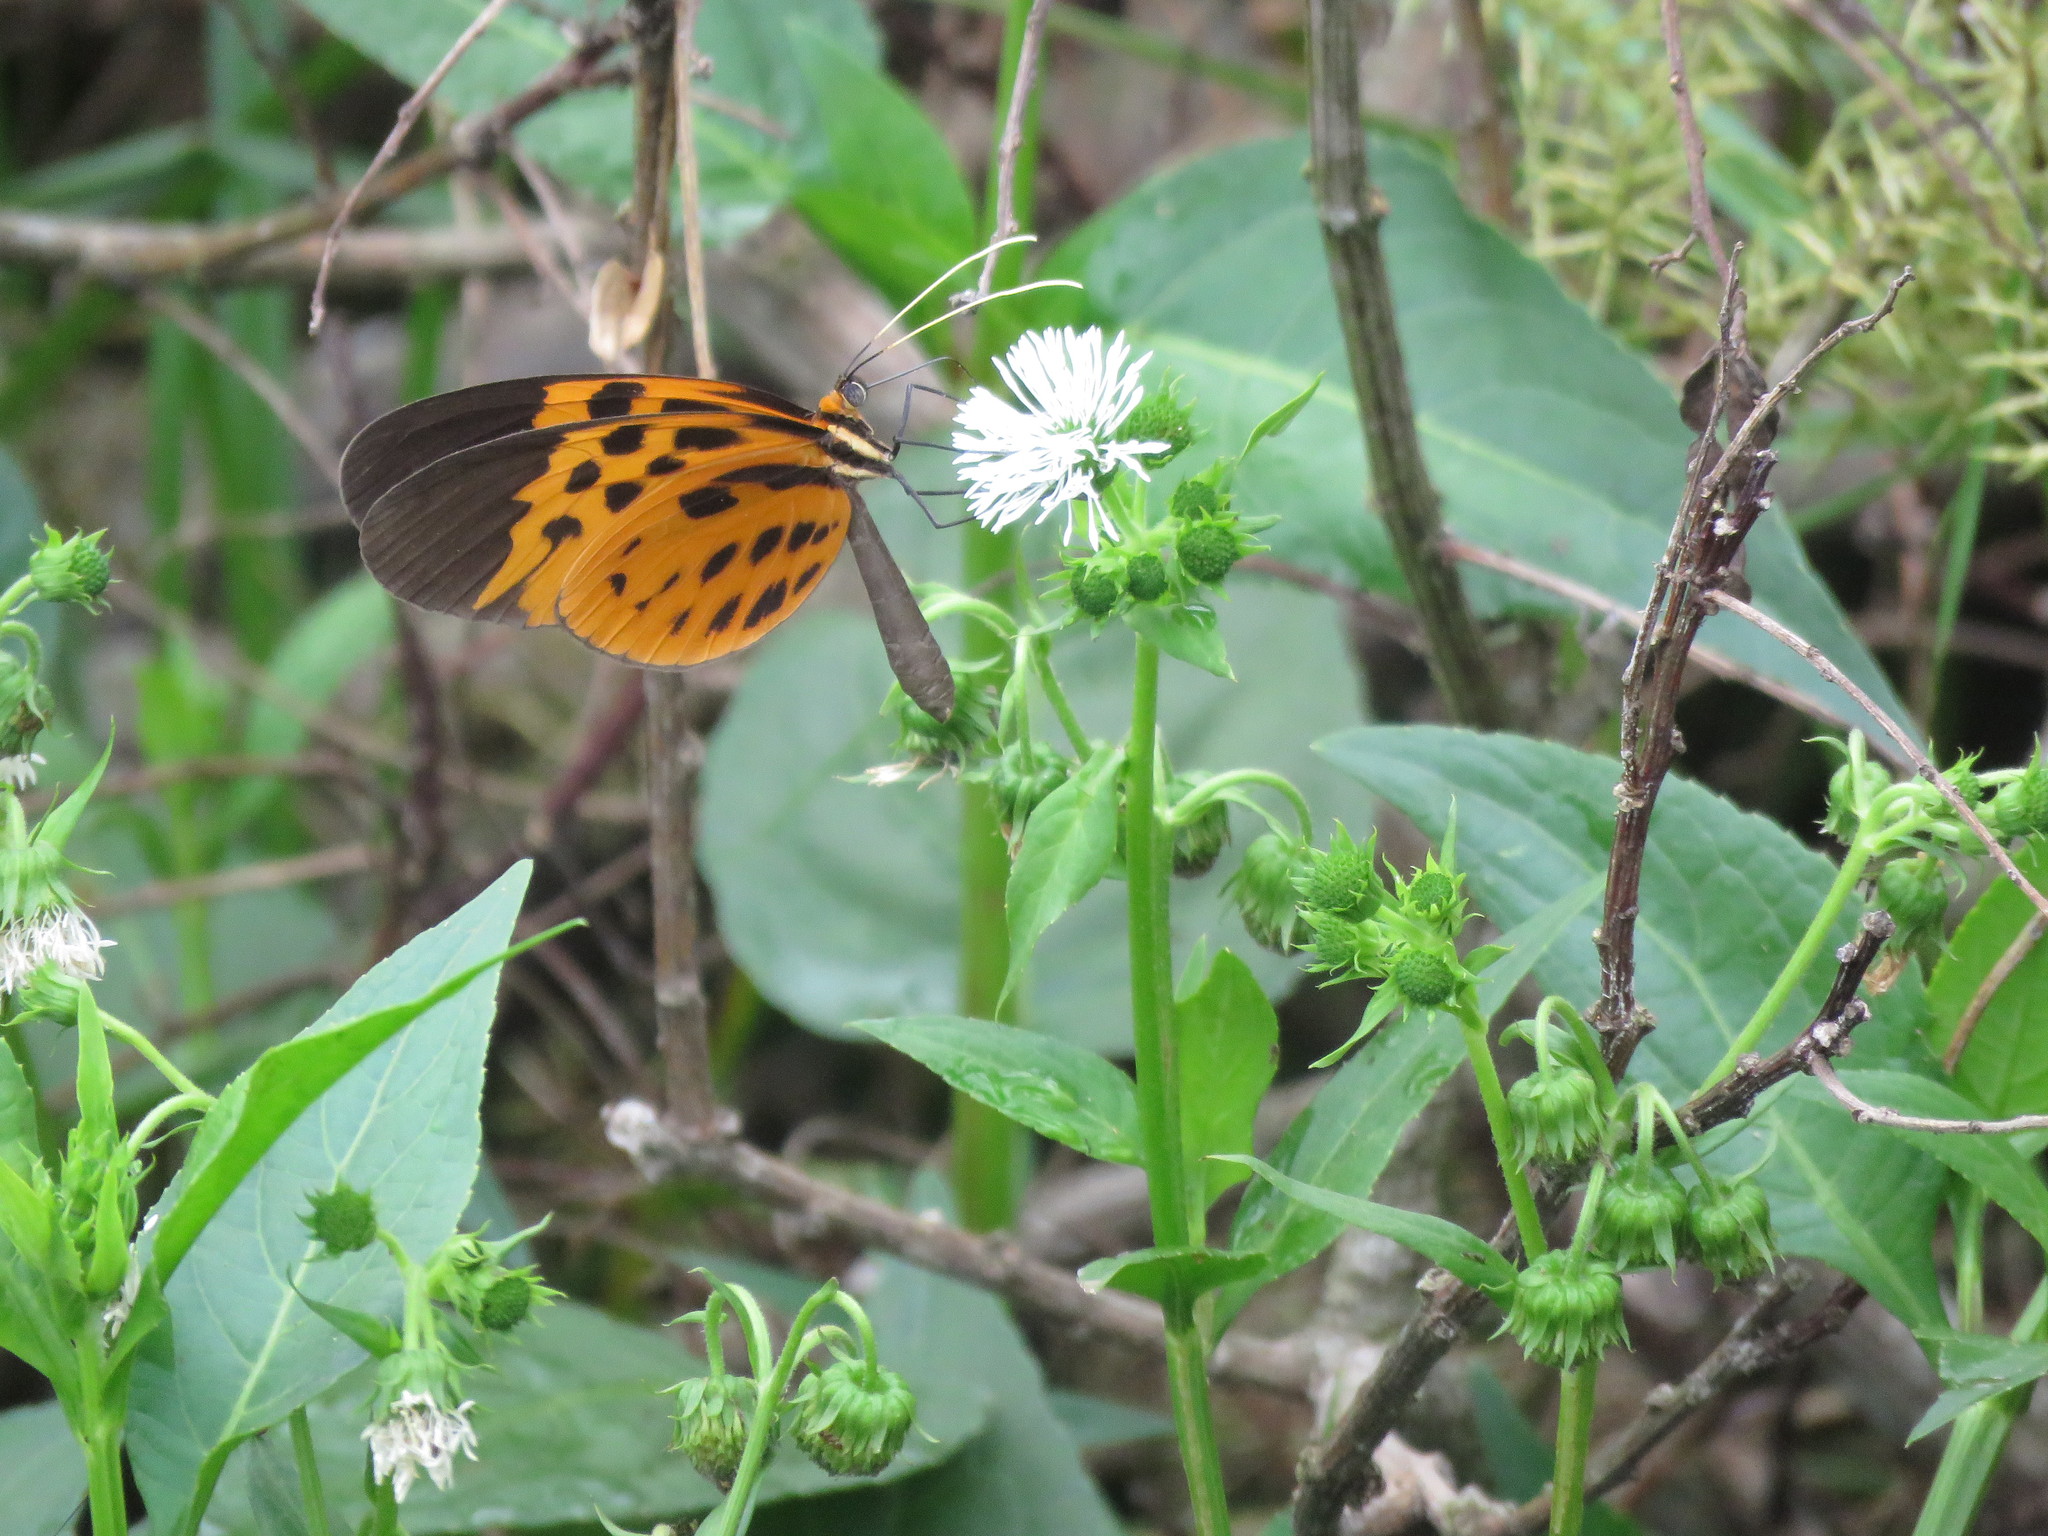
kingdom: Animalia
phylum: Arthropoda
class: Insecta
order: Lepidoptera
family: Nymphalidae
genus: Melinaea
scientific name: Melinaea menophilus
